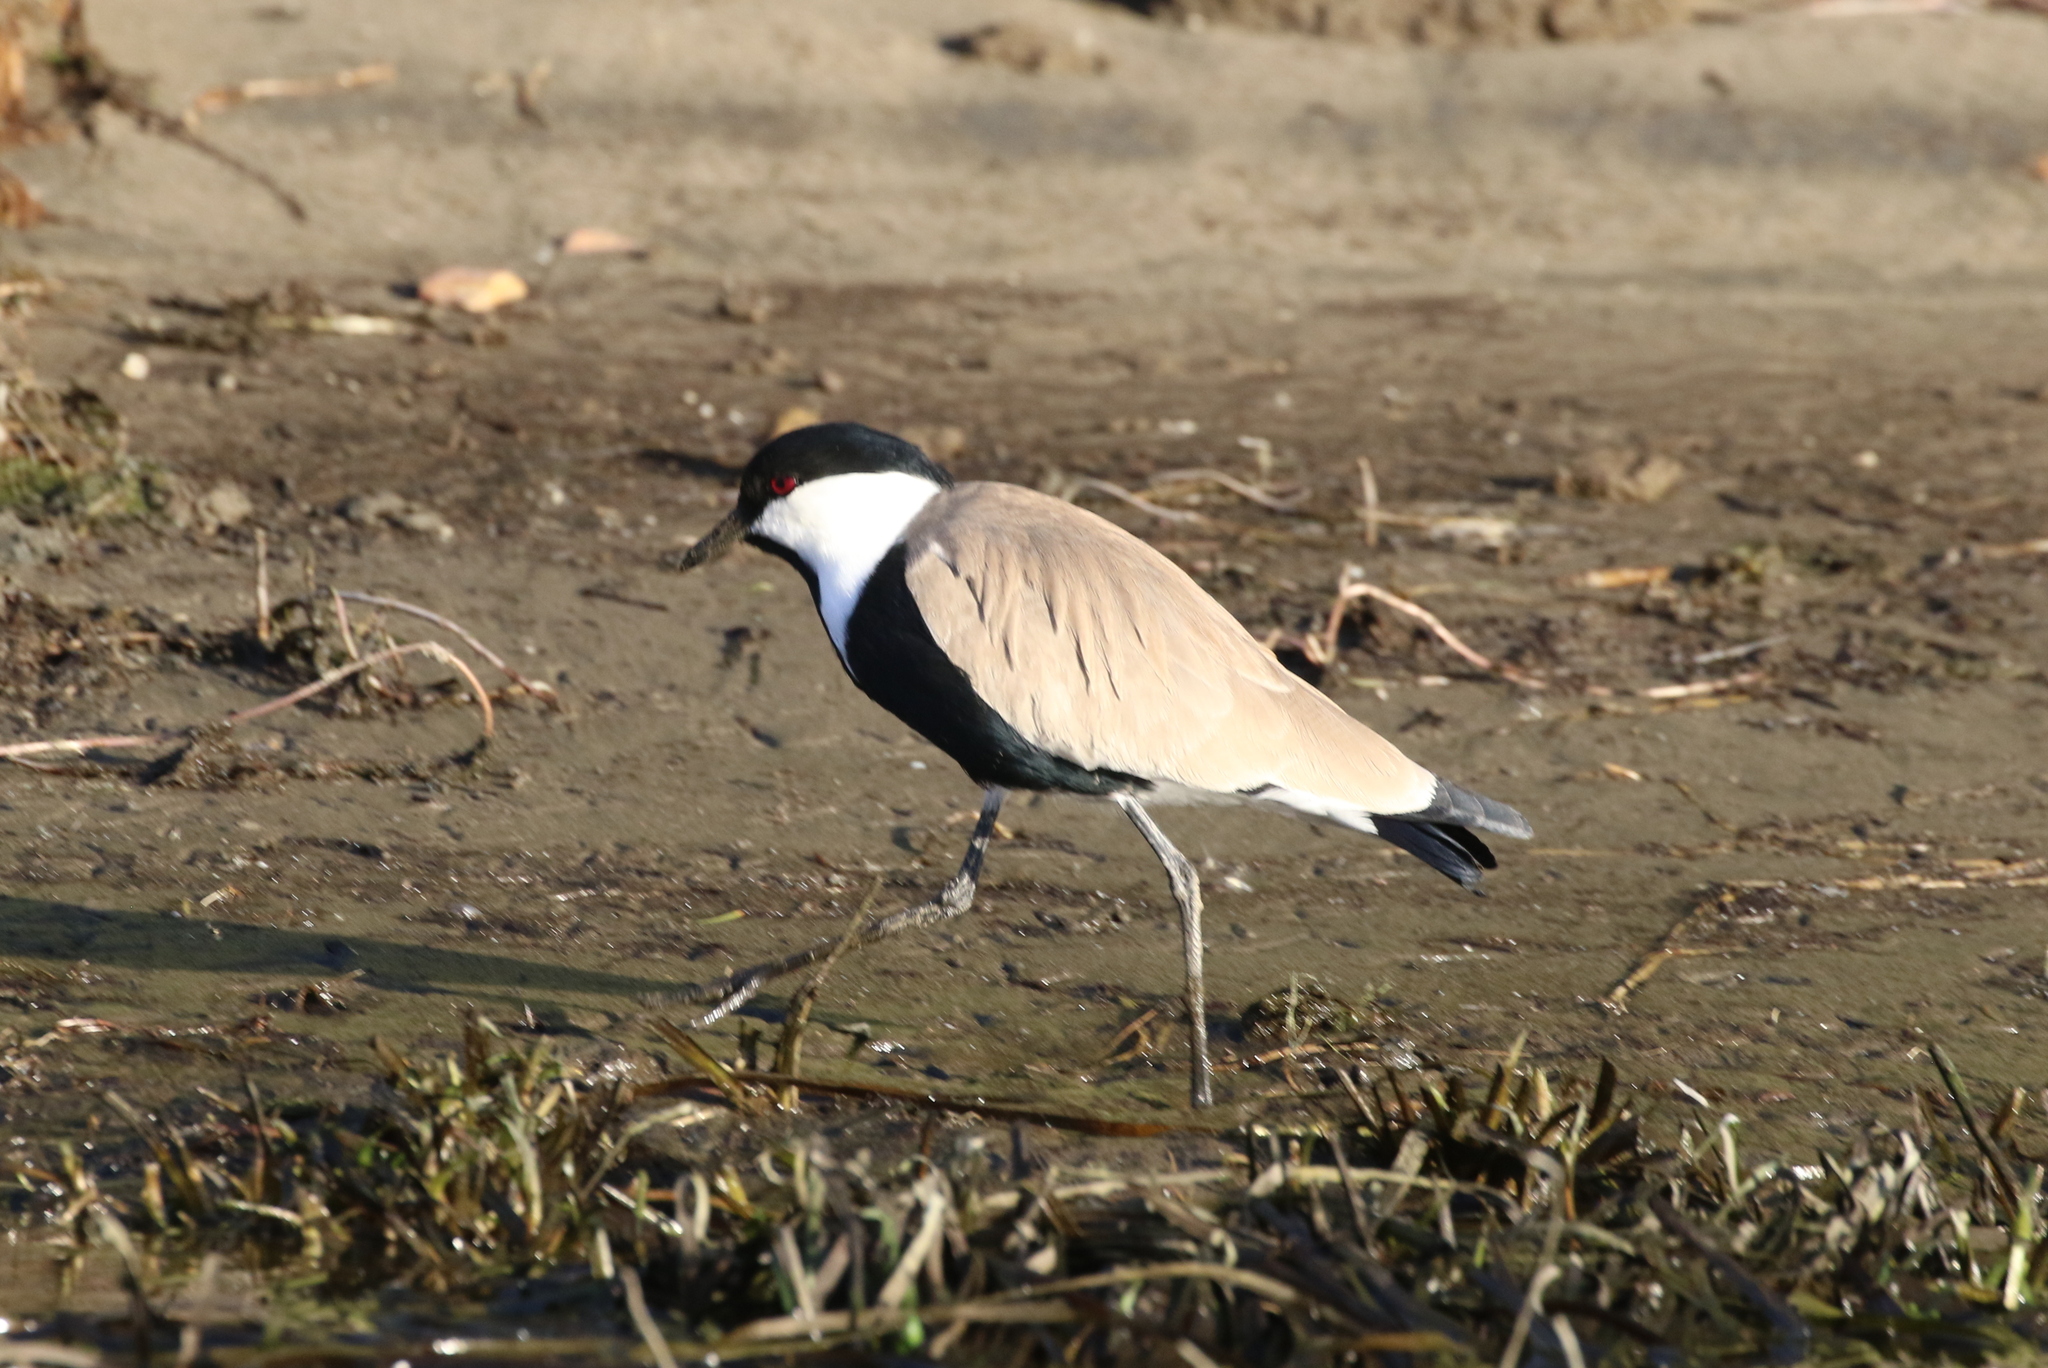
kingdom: Animalia
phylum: Chordata
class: Aves
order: Charadriiformes
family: Charadriidae
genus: Vanellus
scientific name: Vanellus spinosus
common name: Spur-winged lapwing
